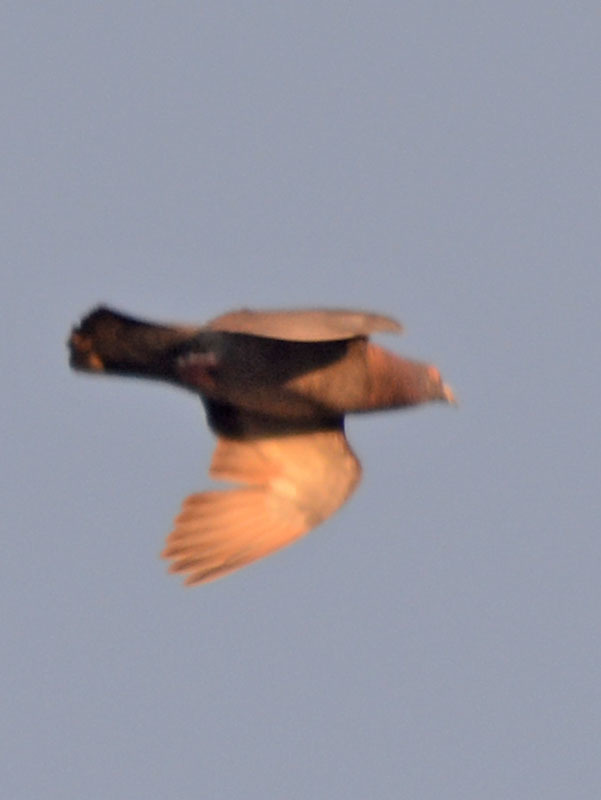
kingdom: Animalia
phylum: Chordata
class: Aves
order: Columbiformes
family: Columbidae
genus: Columba
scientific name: Columba livia
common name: Rock pigeon
